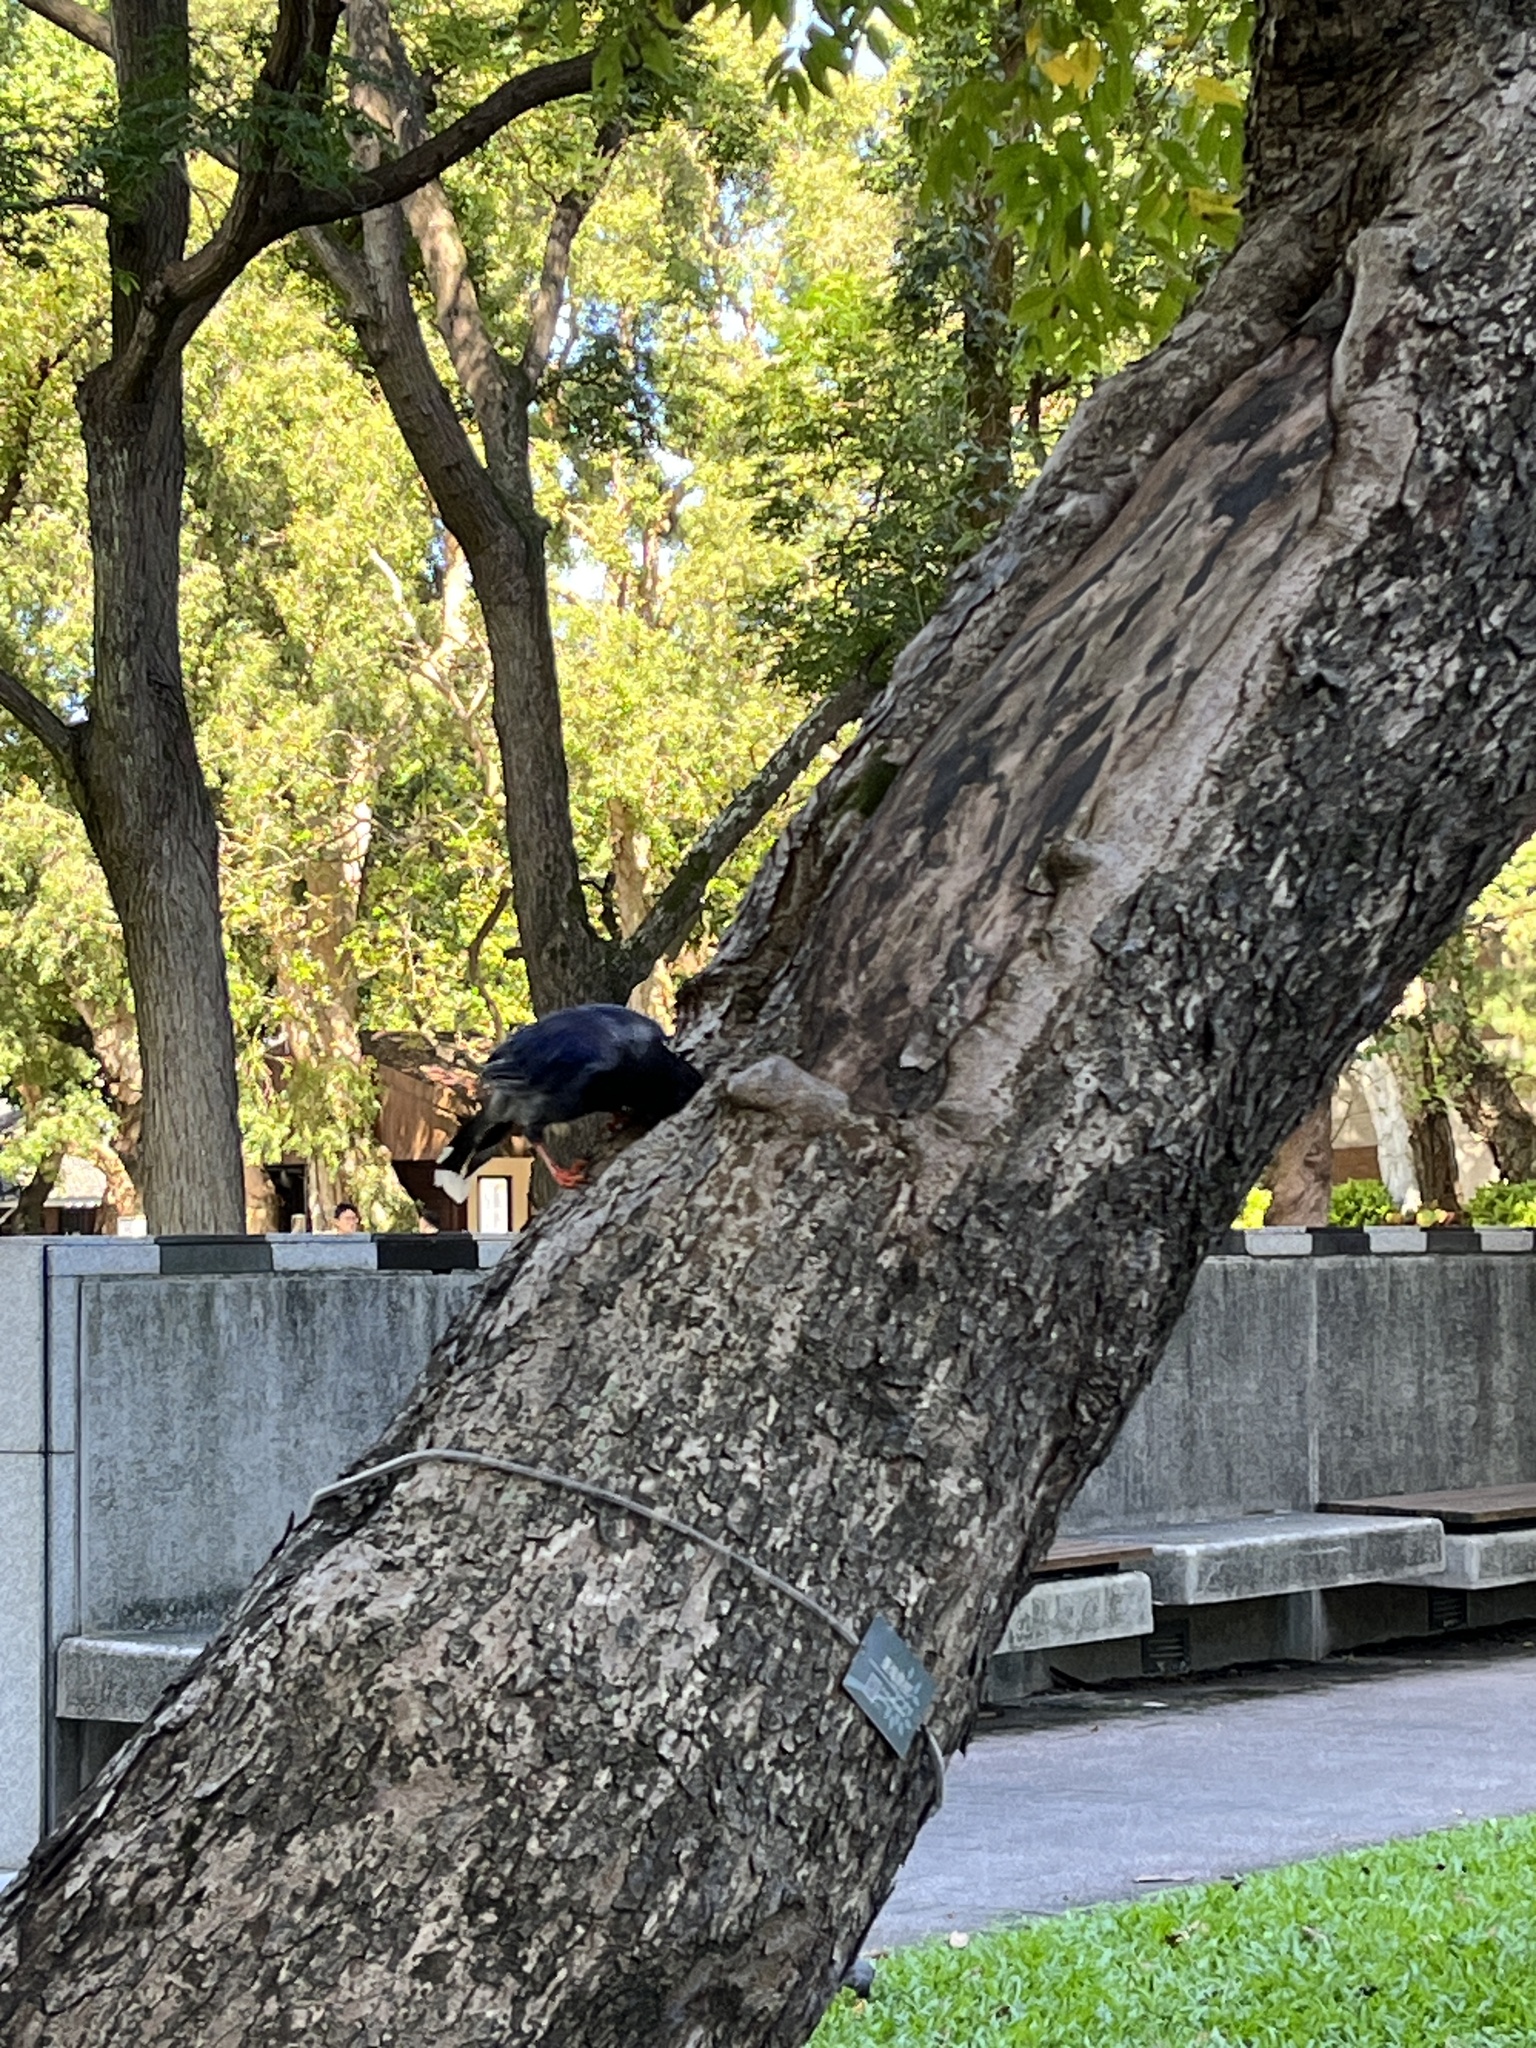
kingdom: Animalia
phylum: Chordata
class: Aves
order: Passeriformes
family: Corvidae
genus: Urocissa
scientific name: Urocissa caerulea
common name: Taiwan blue magpie
